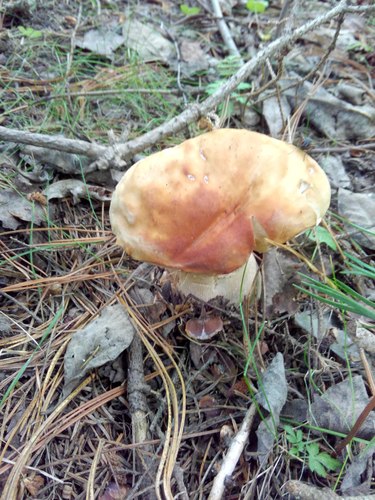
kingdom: Fungi
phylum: Basidiomycota
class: Agaricomycetes
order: Boletales
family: Boletaceae
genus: Boletus
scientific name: Boletus edulis
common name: Cep
